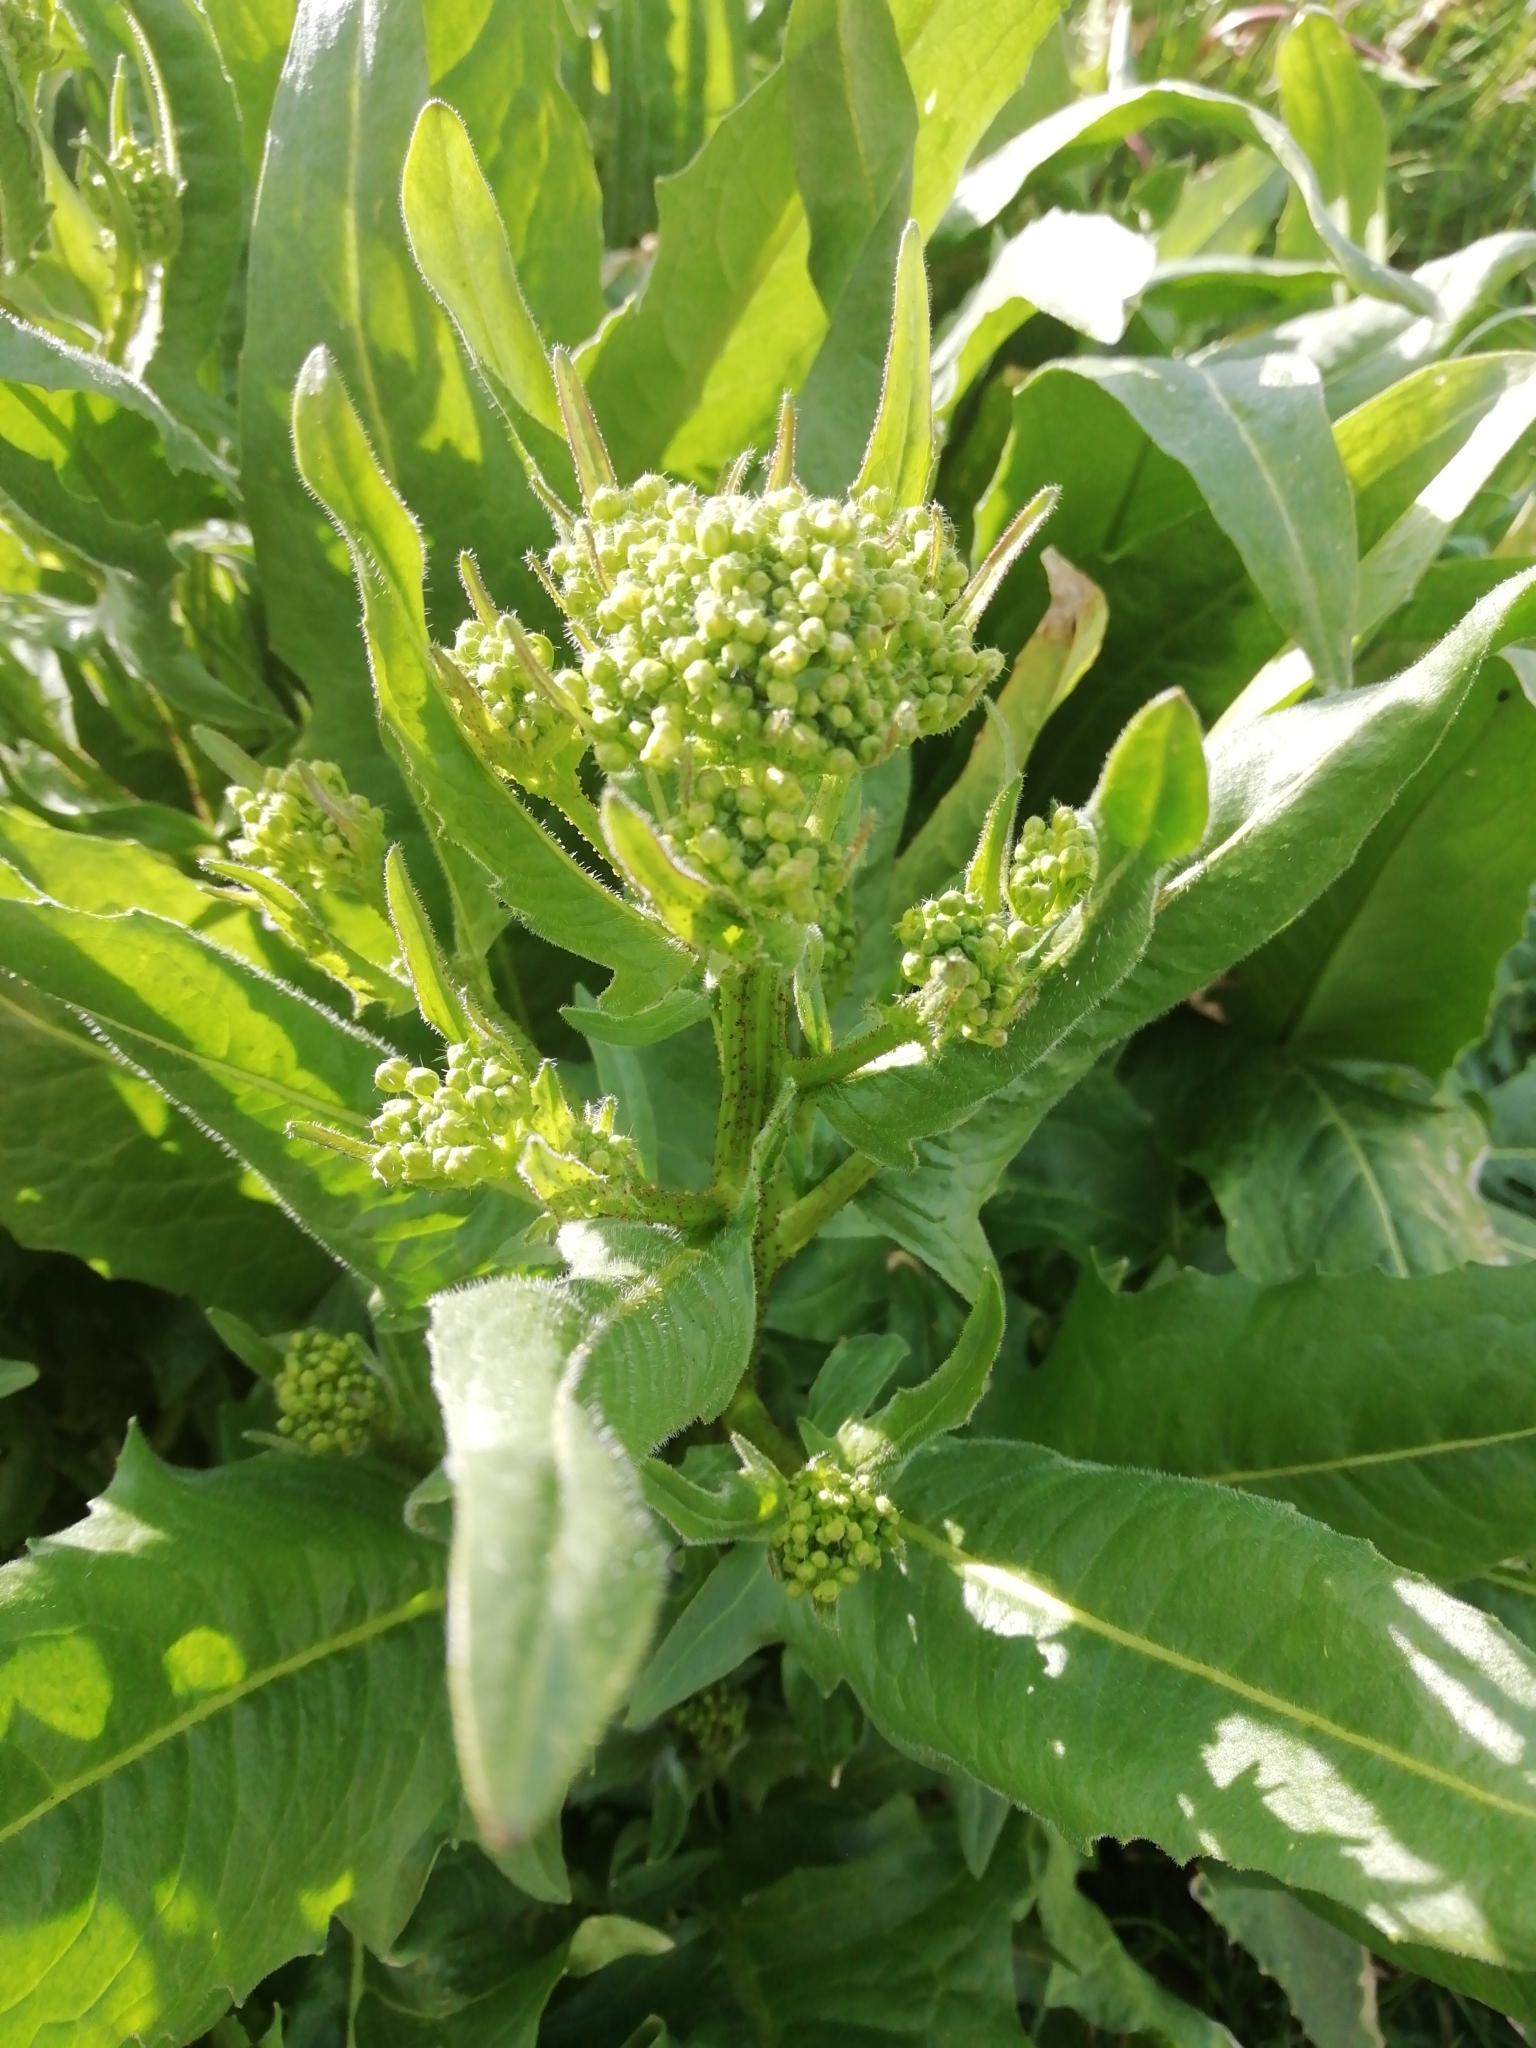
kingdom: Plantae
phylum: Tracheophyta
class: Magnoliopsida
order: Brassicales
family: Brassicaceae
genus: Bunias
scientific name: Bunias orientalis
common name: Warty-cabbage
